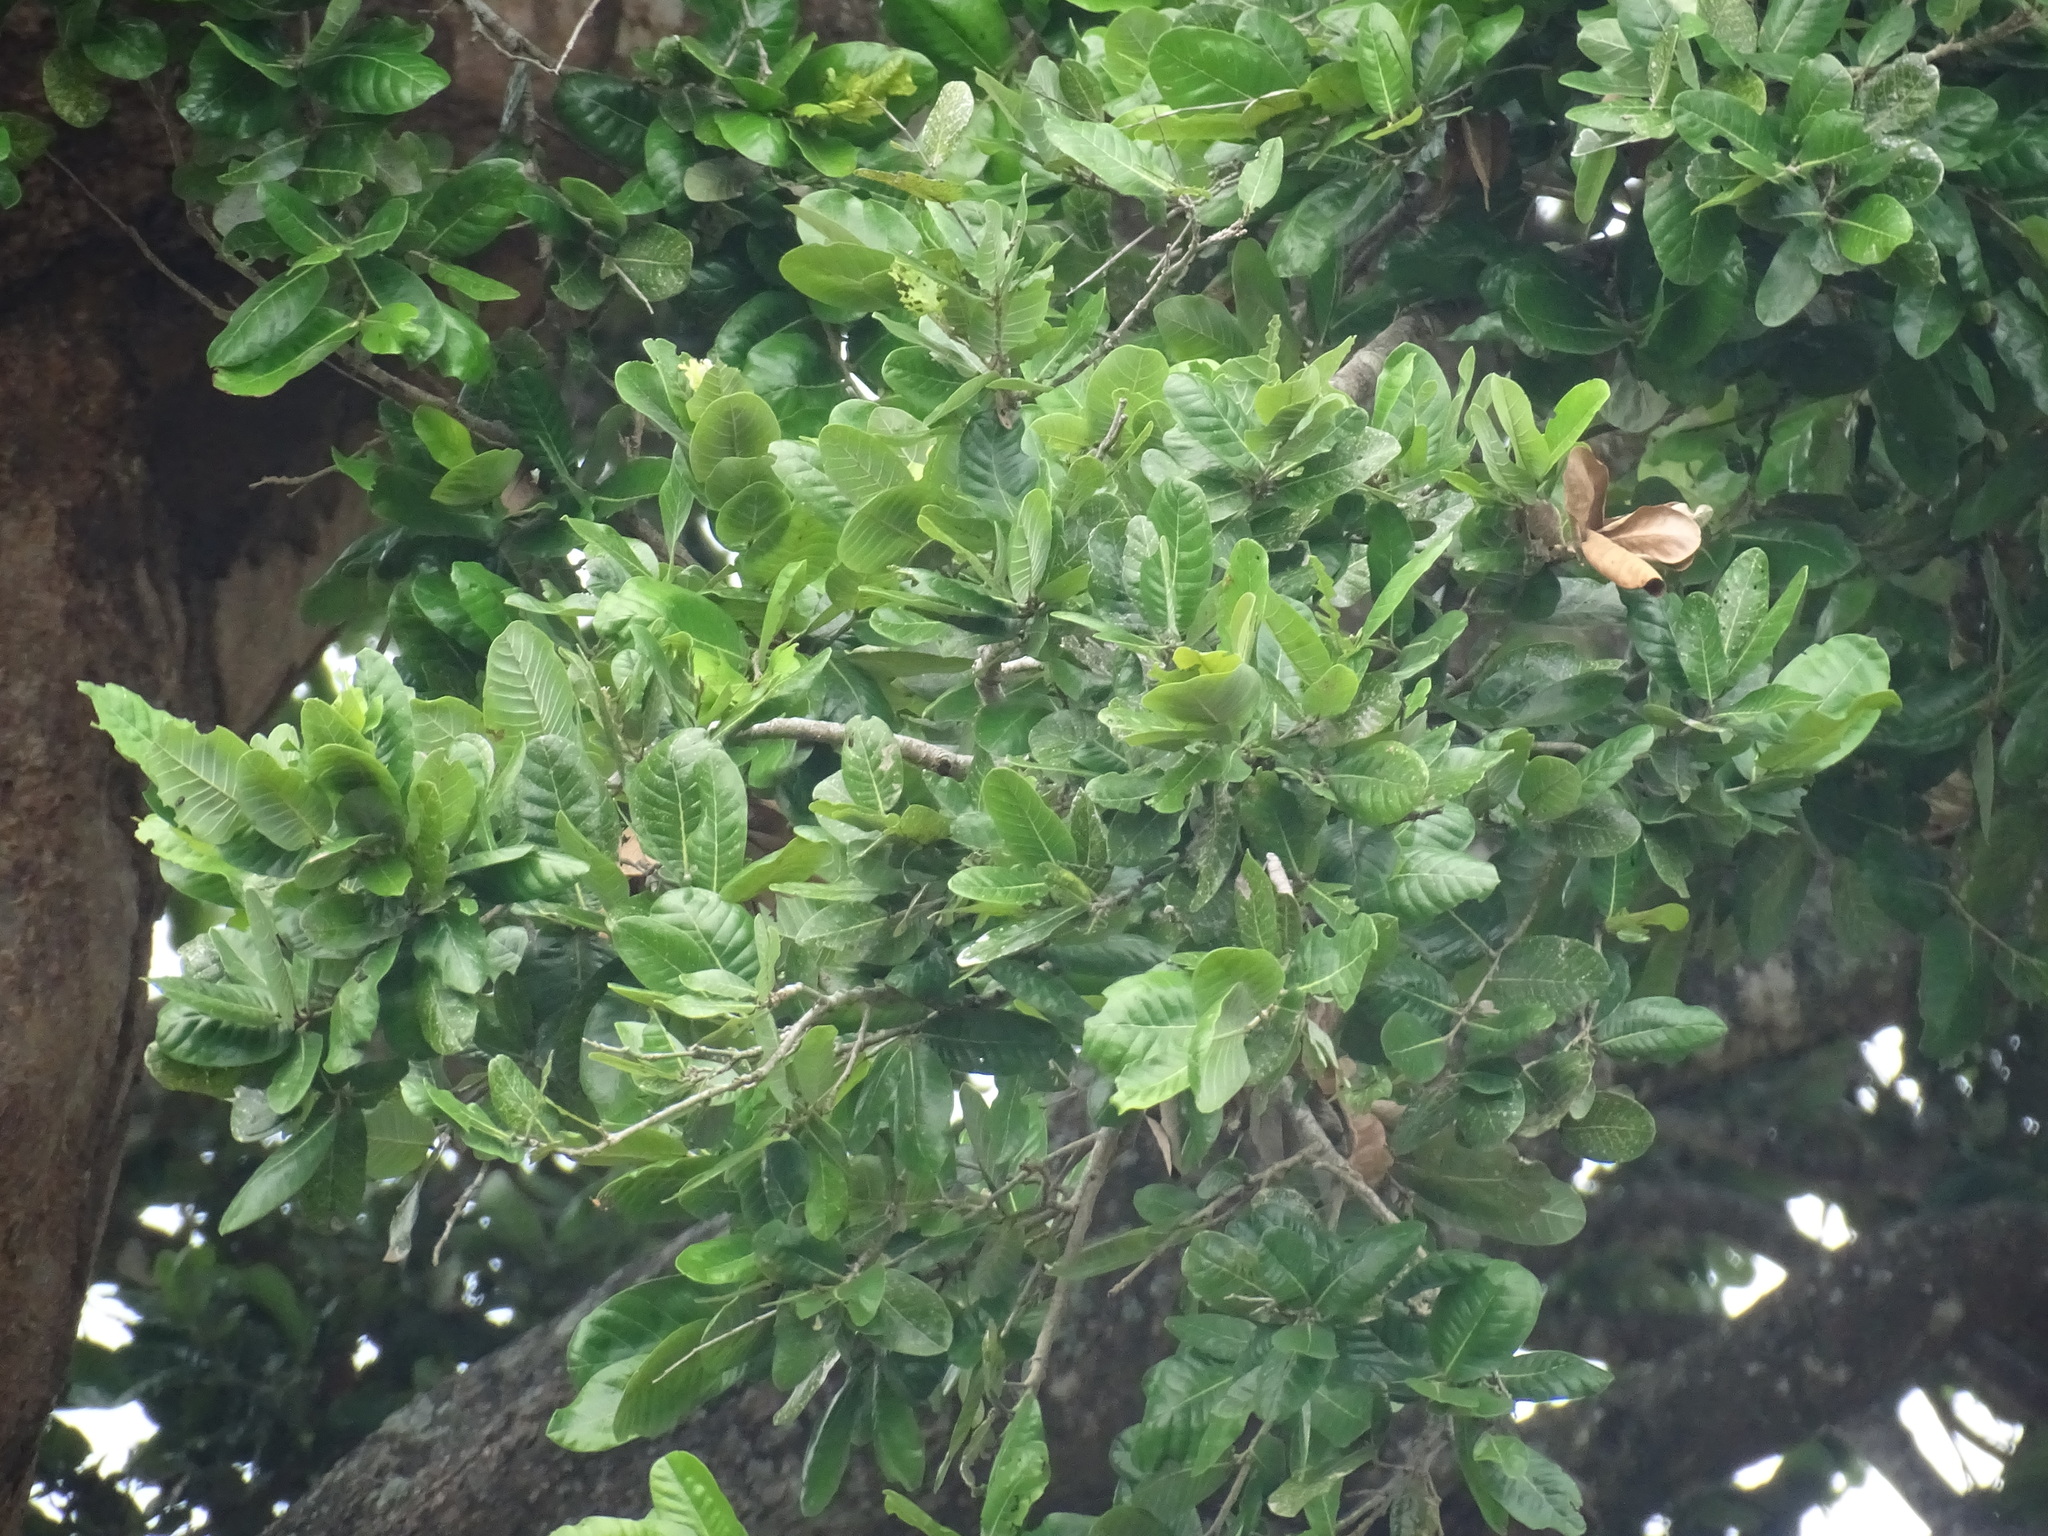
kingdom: Plantae
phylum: Tracheophyta
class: Magnoliopsida
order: Malpighiales
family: Chrysobalanaceae
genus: Microdesmia
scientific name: Microdesmia arborea
